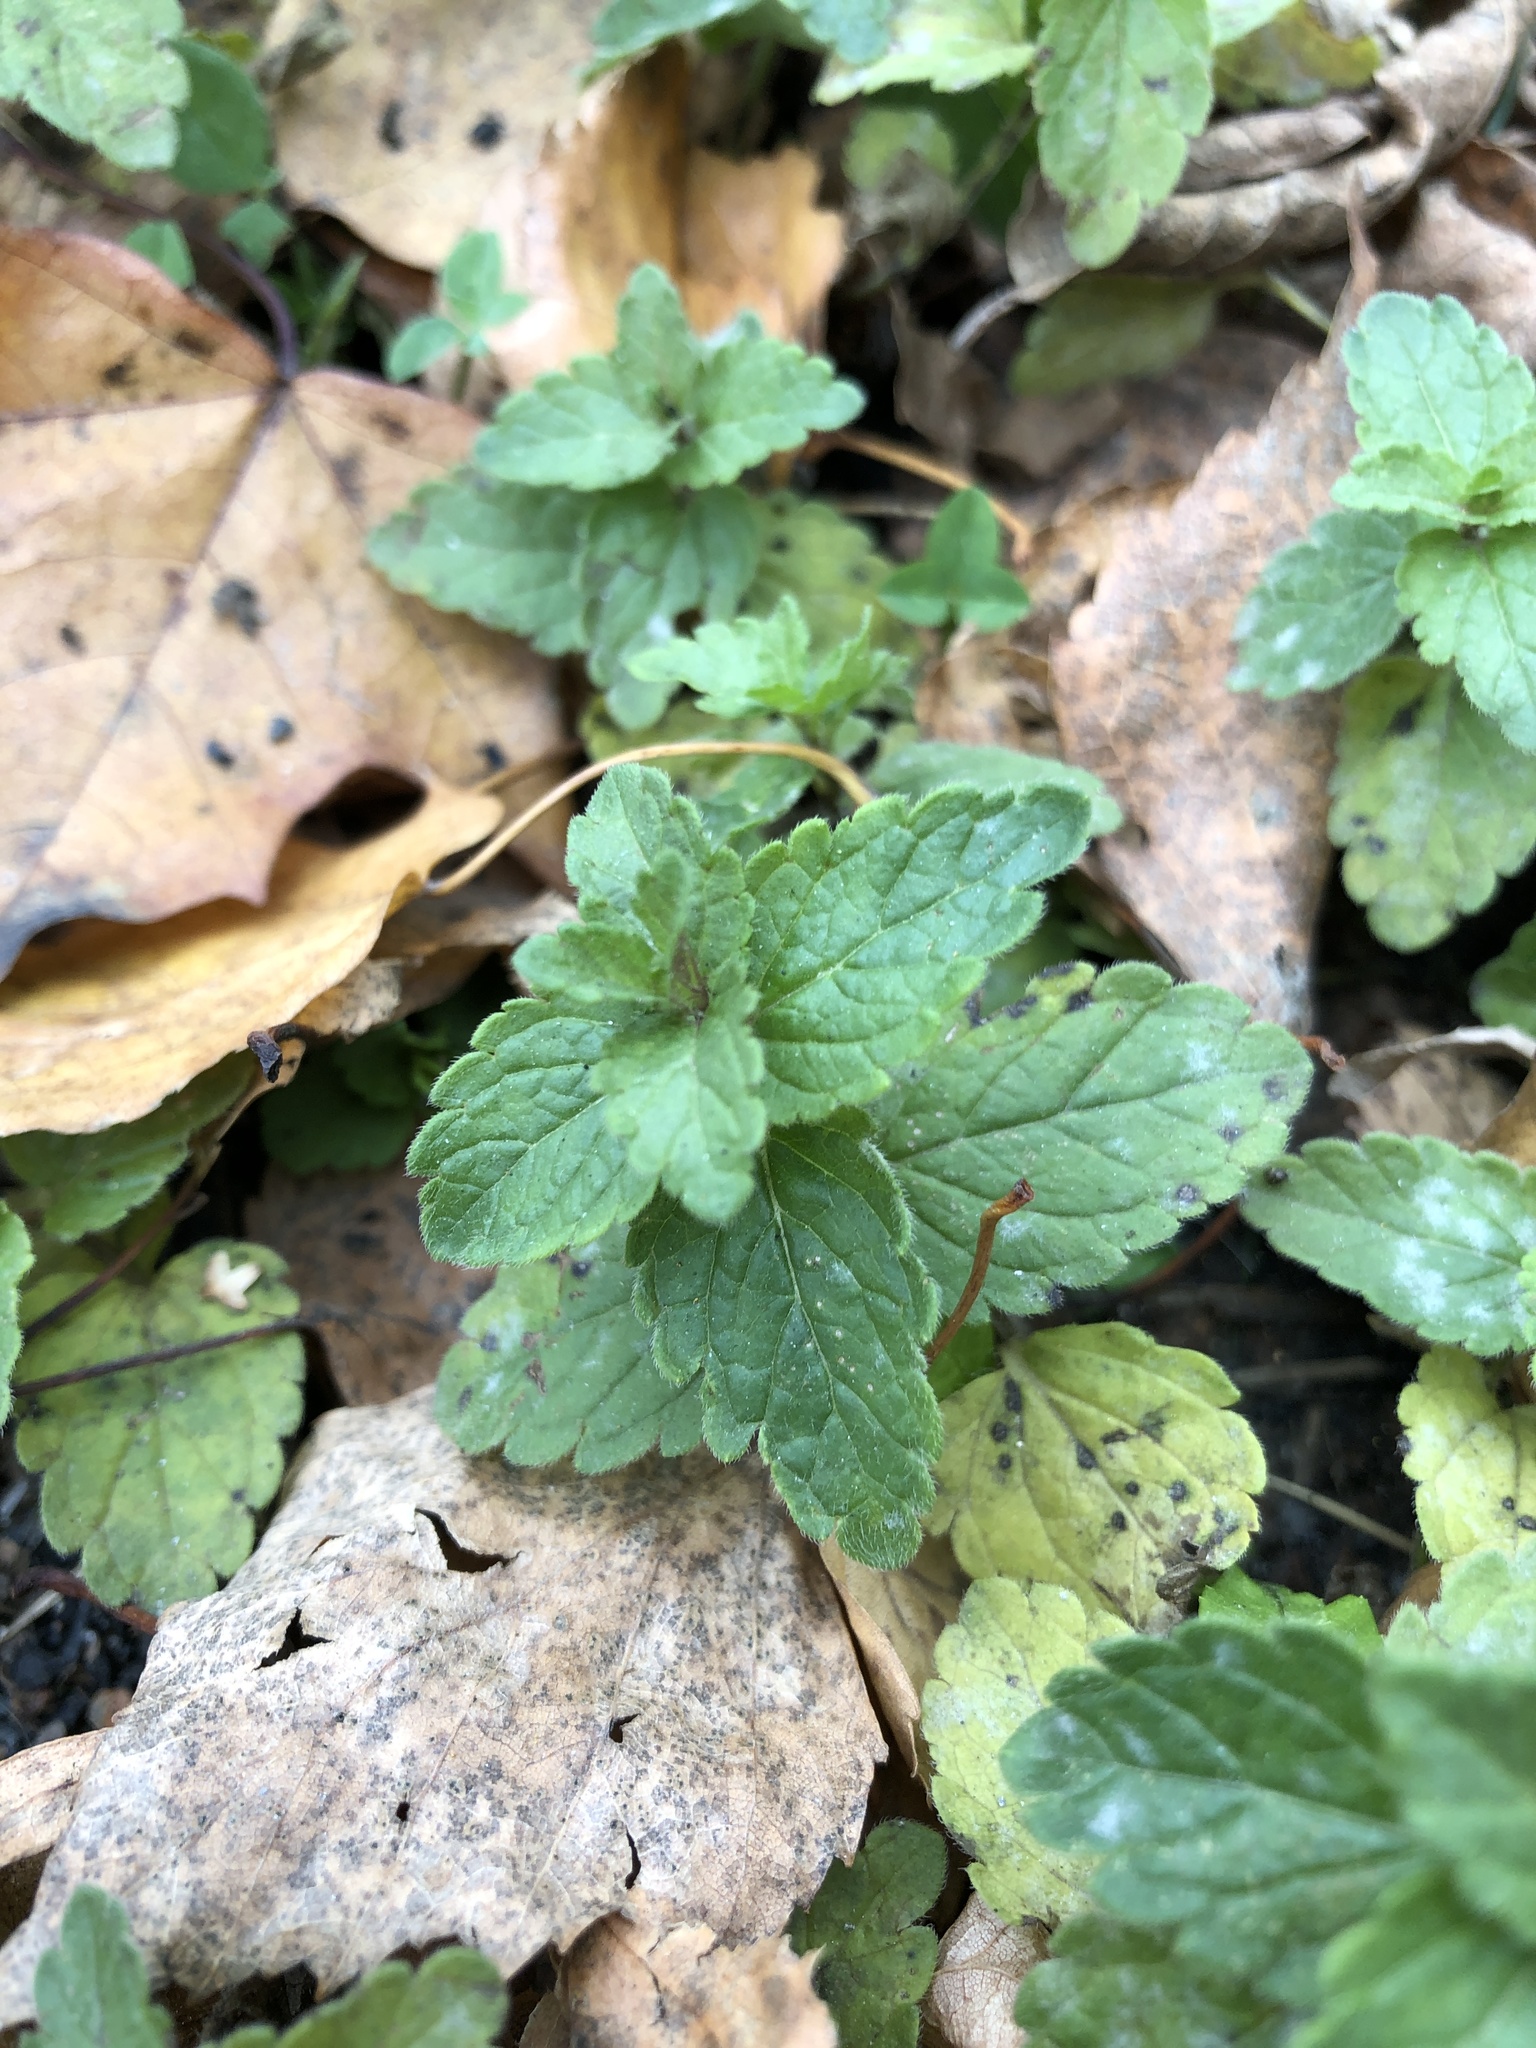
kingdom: Plantae
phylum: Tracheophyta
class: Magnoliopsida
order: Lamiales
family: Plantaginaceae
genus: Veronica
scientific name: Veronica chamaedrys
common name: Germander speedwell
